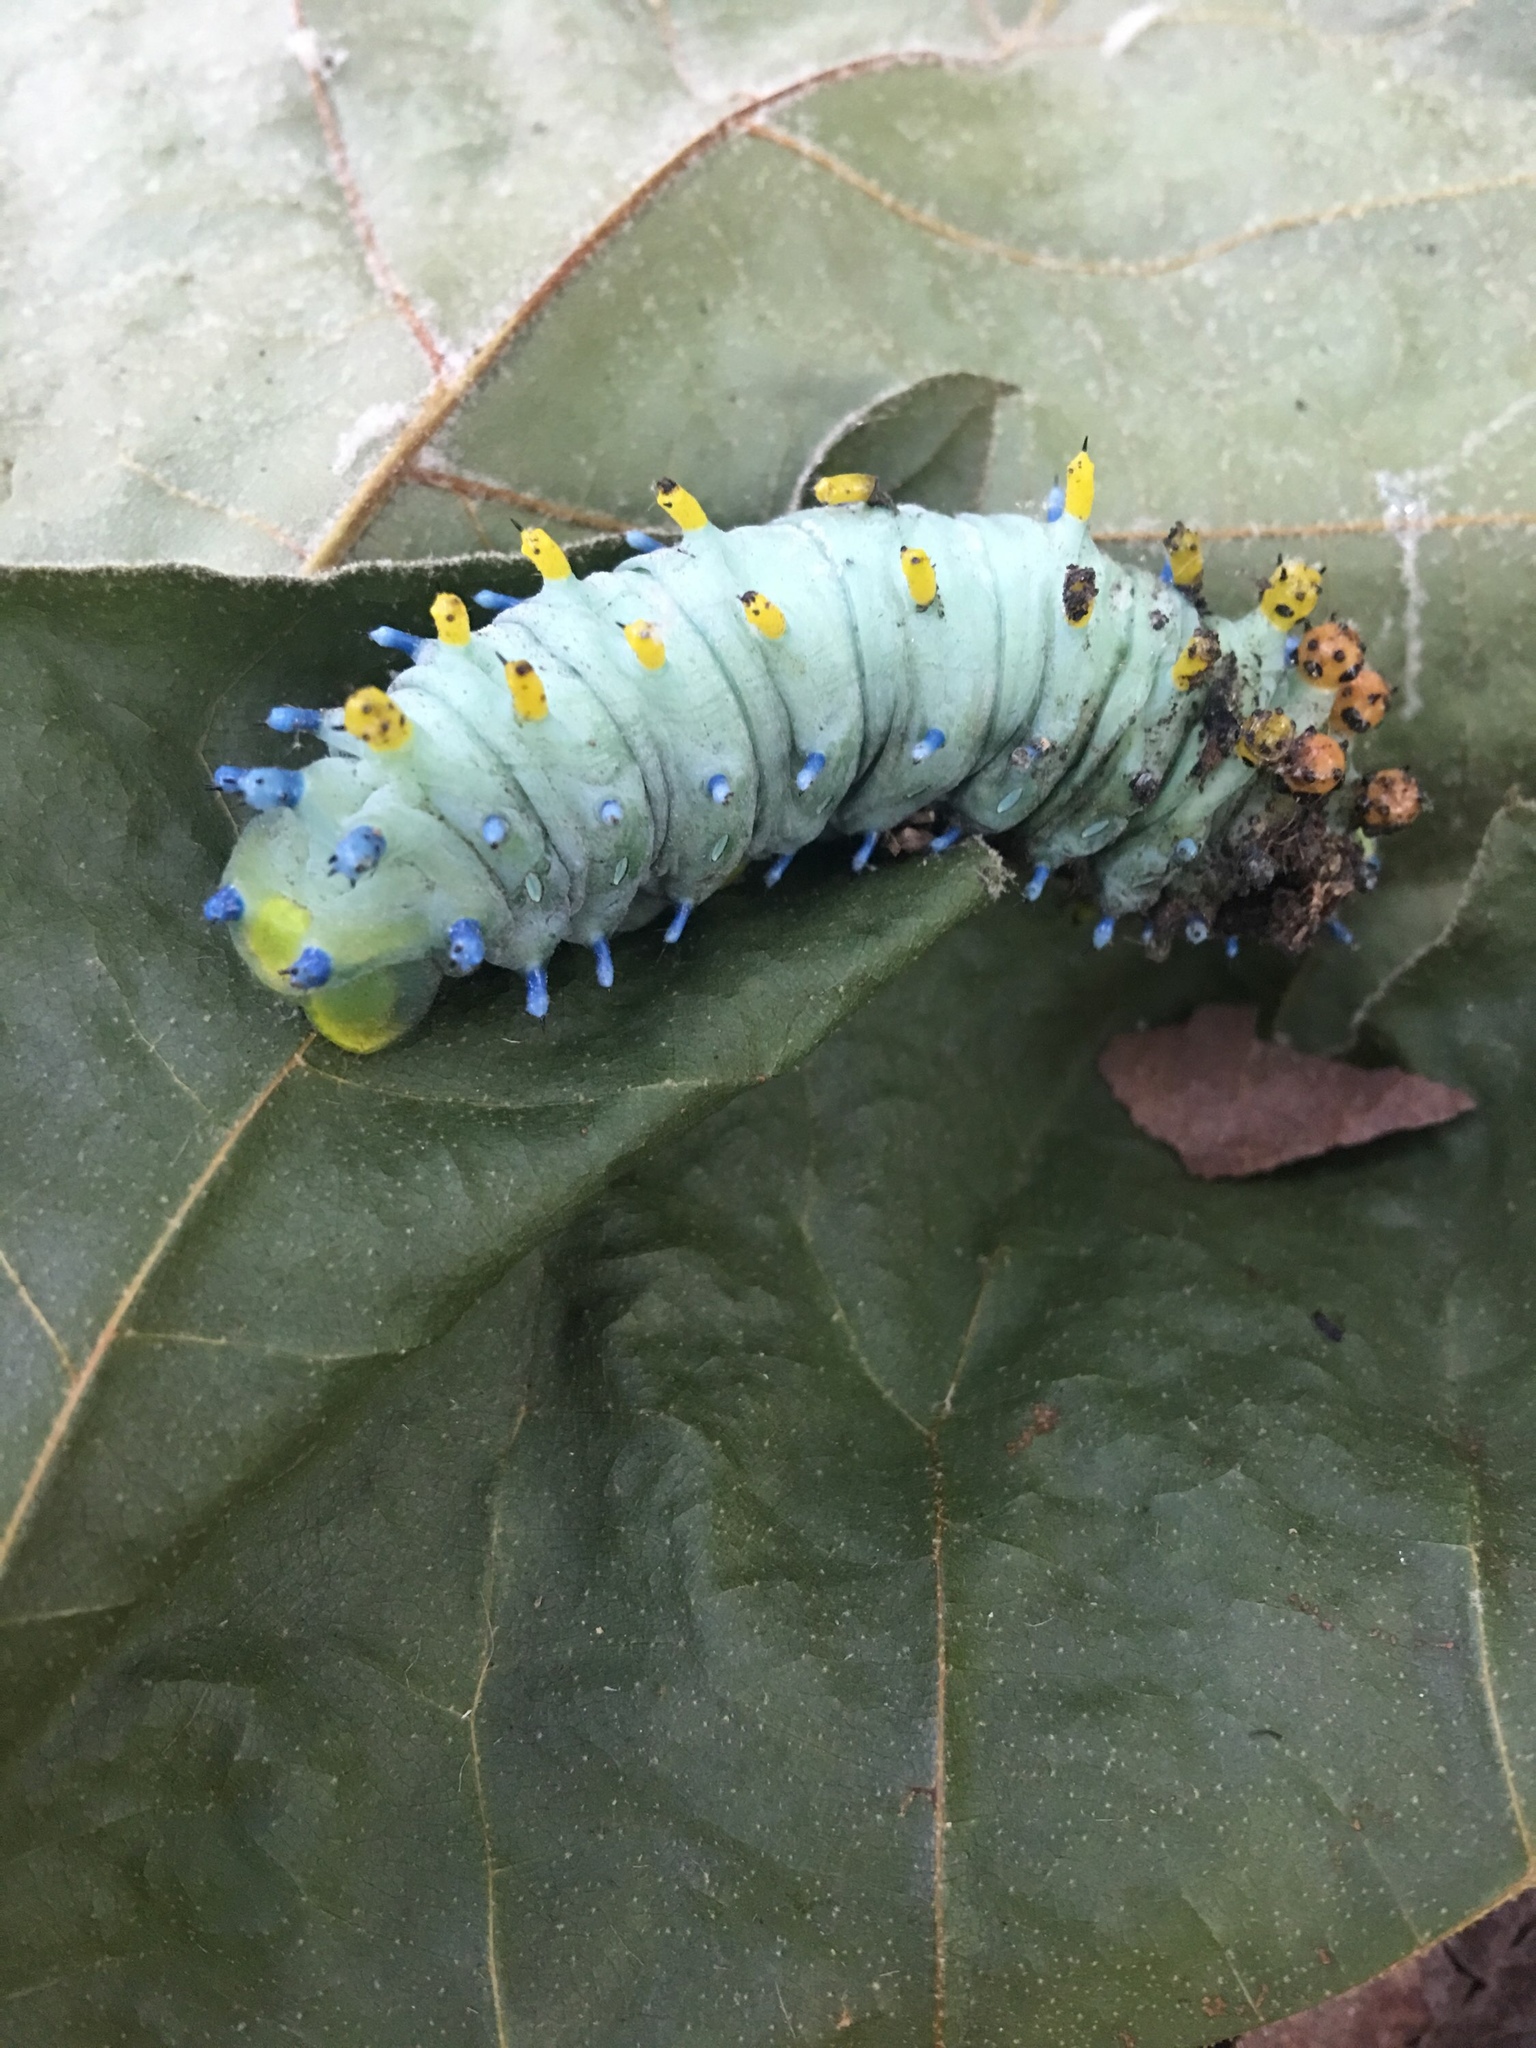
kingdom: Animalia
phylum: Arthropoda
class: Insecta
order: Lepidoptera
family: Saturniidae
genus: Hyalophora
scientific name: Hyalophora cecropia
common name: Cecropia silkmoth
